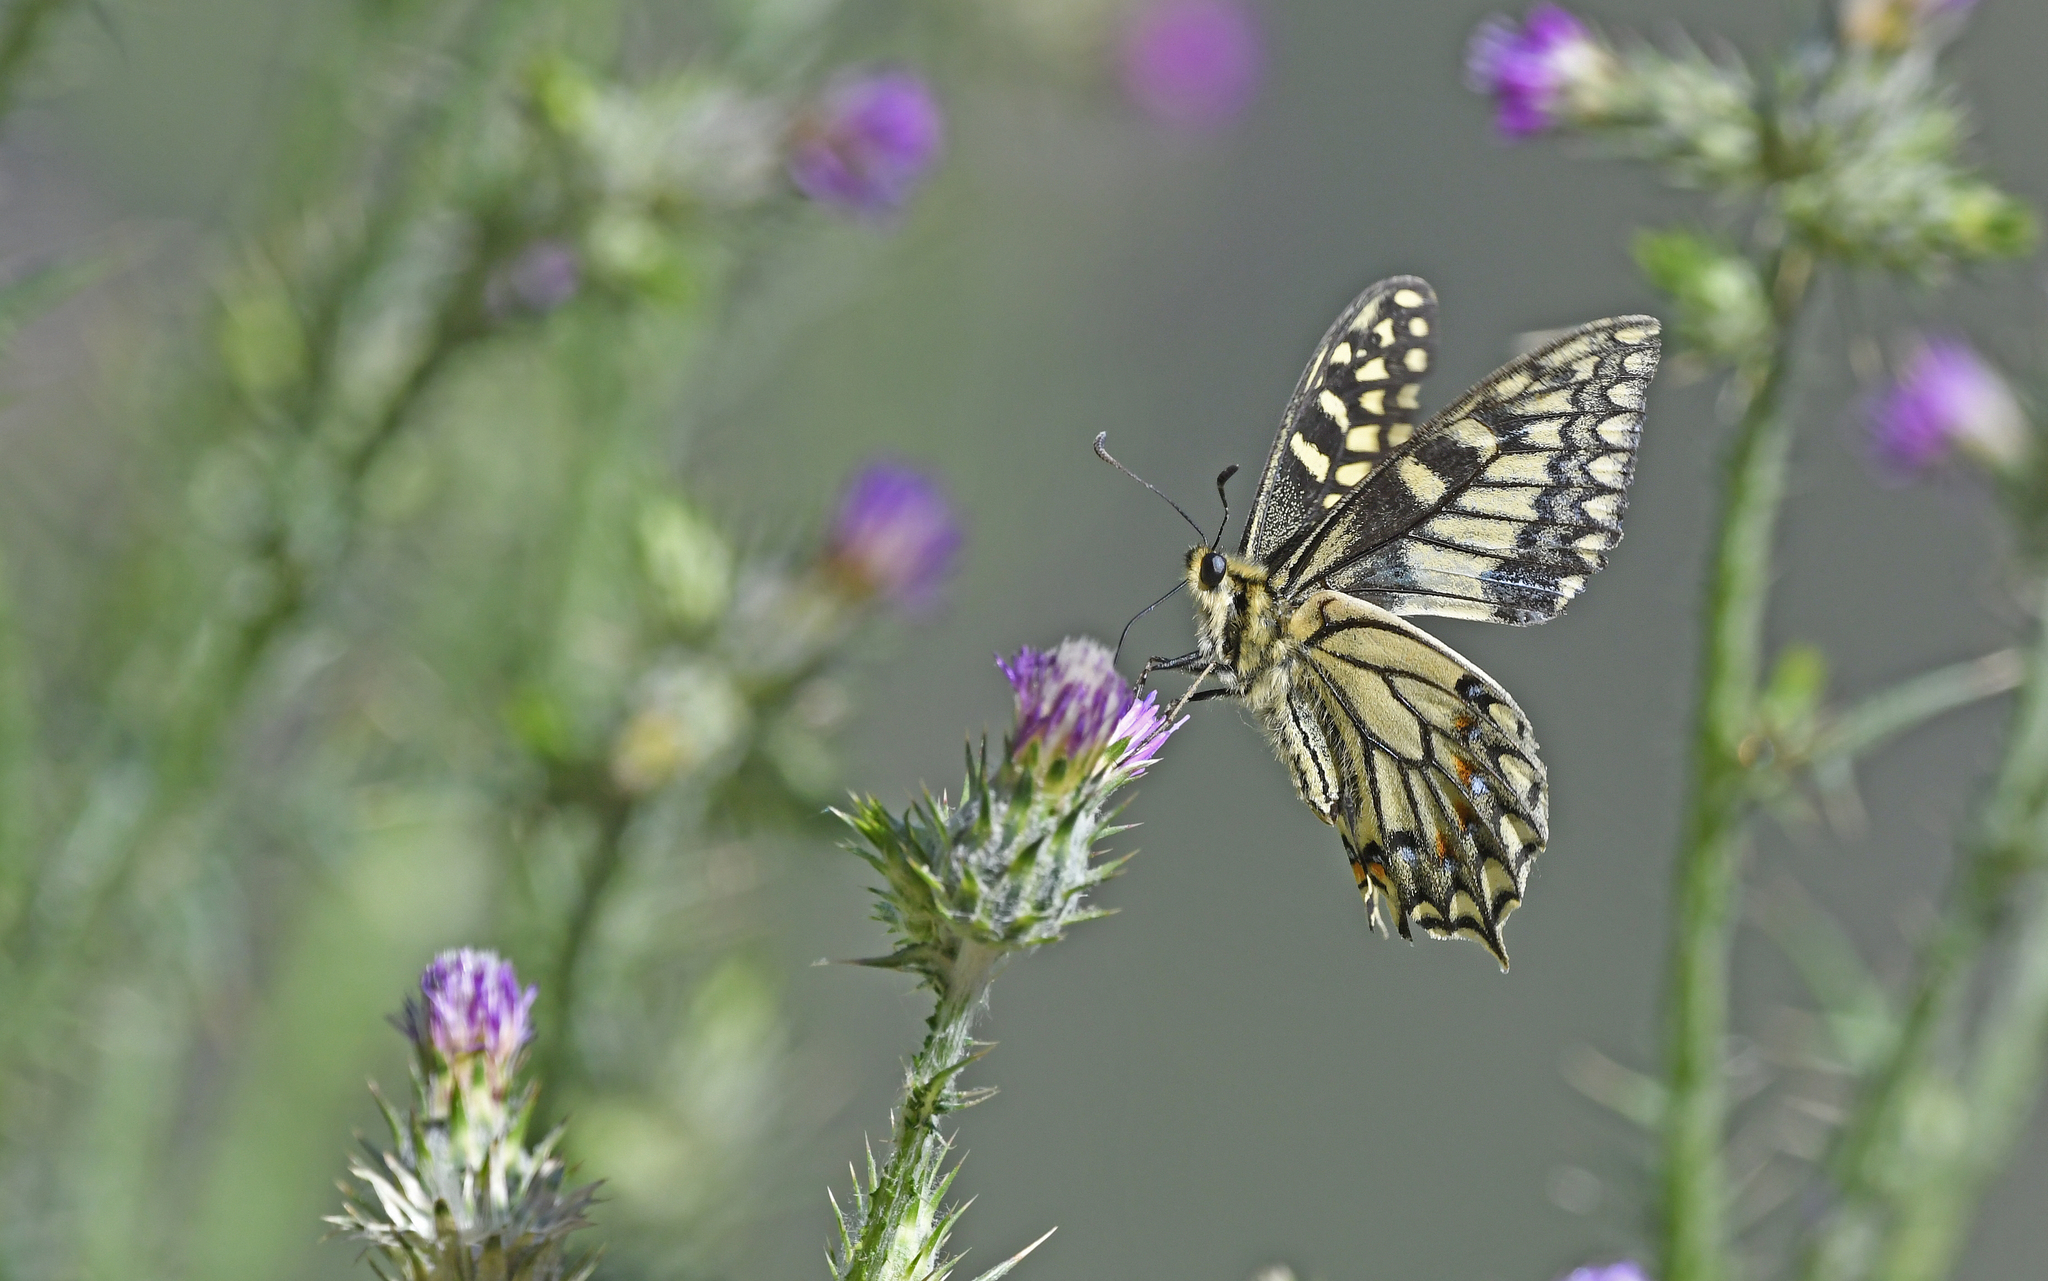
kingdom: Animalia
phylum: Arthropoda
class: Insecta
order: Lepidoptera
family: Papilionidae
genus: Papilio
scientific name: Papilio hospiton
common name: Corsican swallowtail
